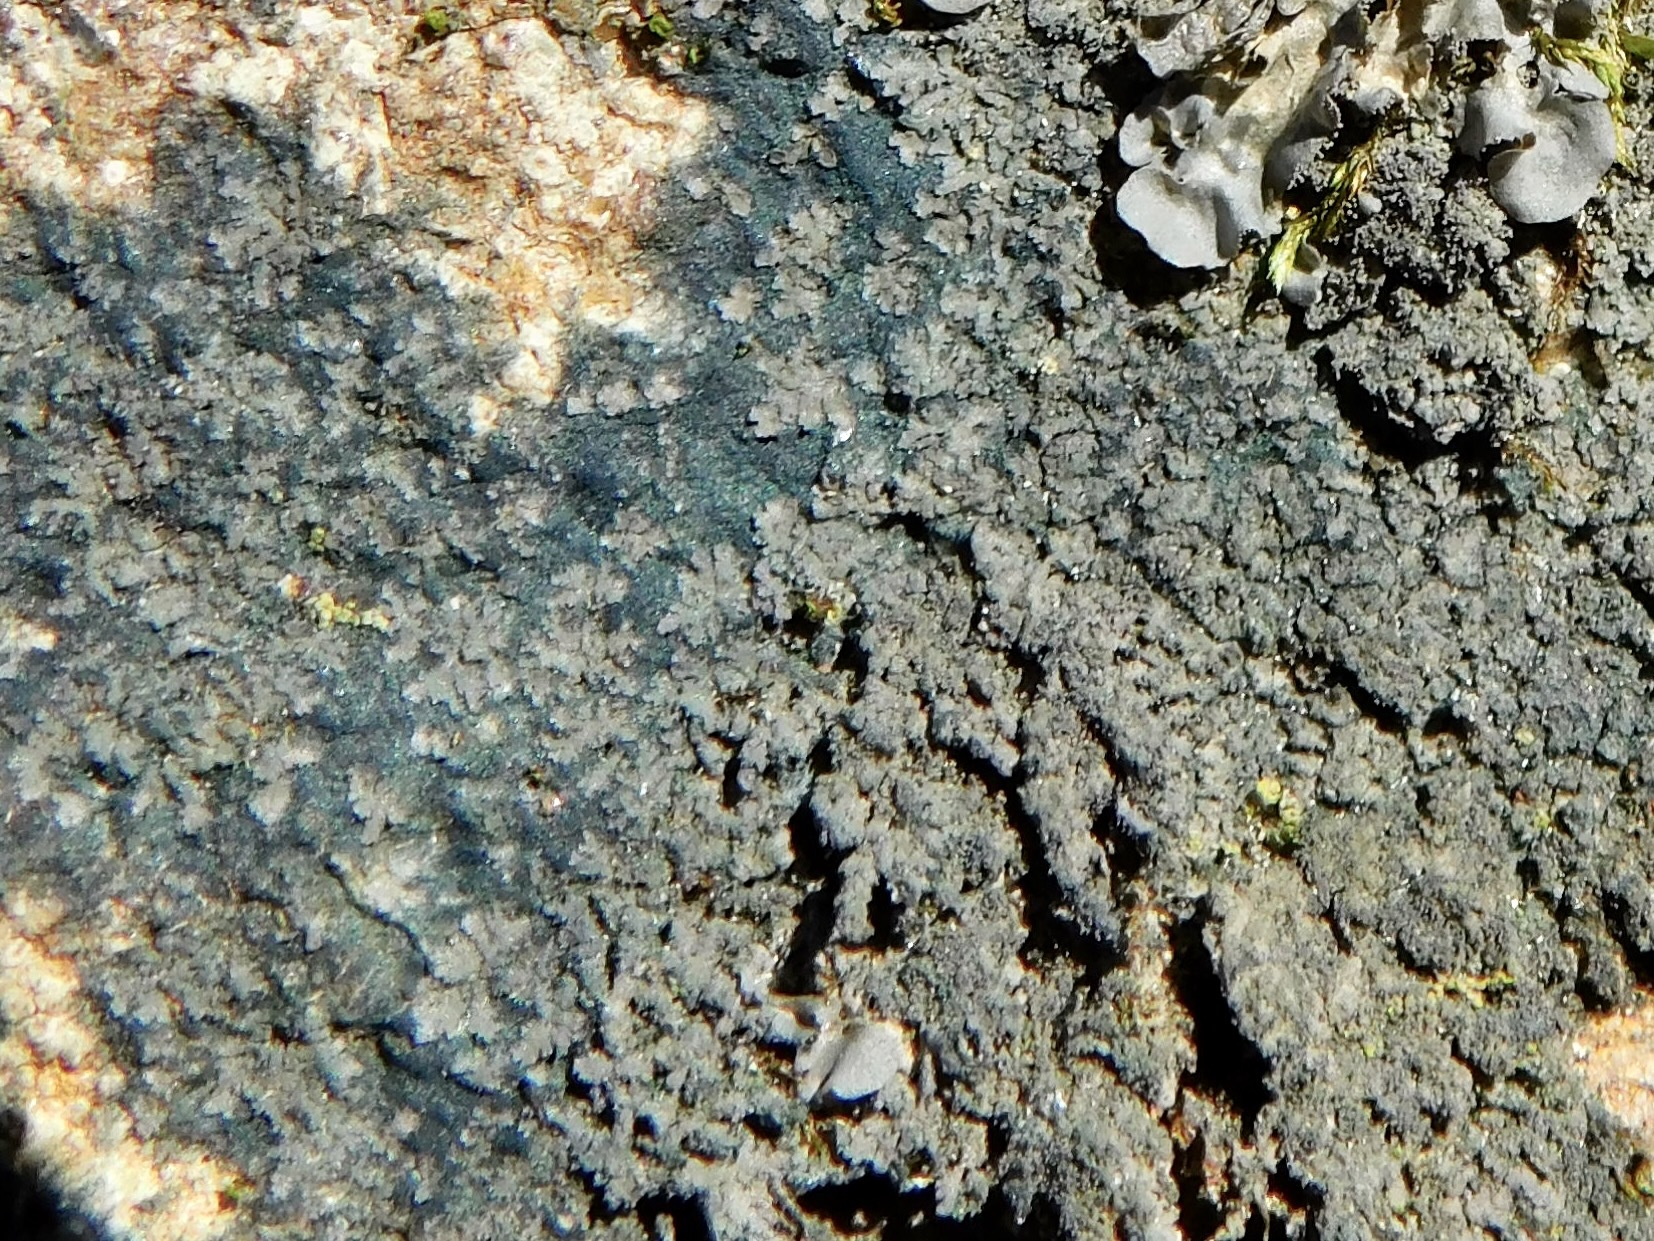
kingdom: Fungi
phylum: Ascomycota
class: Lecanoromycetes
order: Peltigerales
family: Pannariaceae
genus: Parmeliella
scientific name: Parmeliella thriptophylla
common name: Black-bordered shingle lichen
